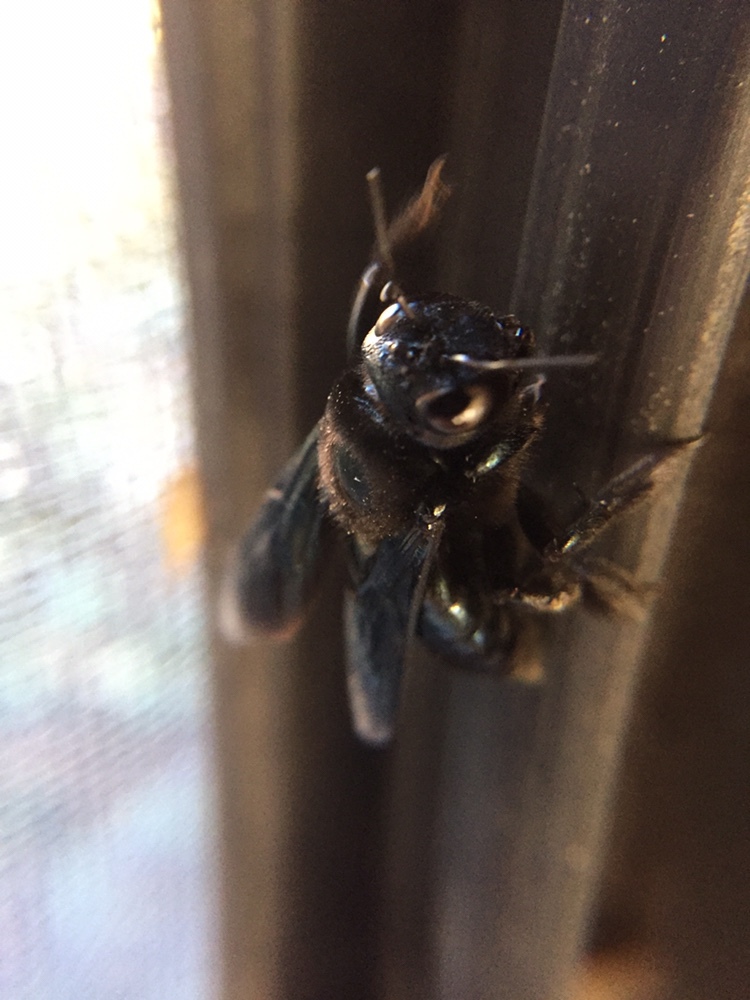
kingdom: Animalia
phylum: Arthropoda
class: Insecta
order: Hymenoptera
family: Apidae
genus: Xylocopa
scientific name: Xylocopa californica
